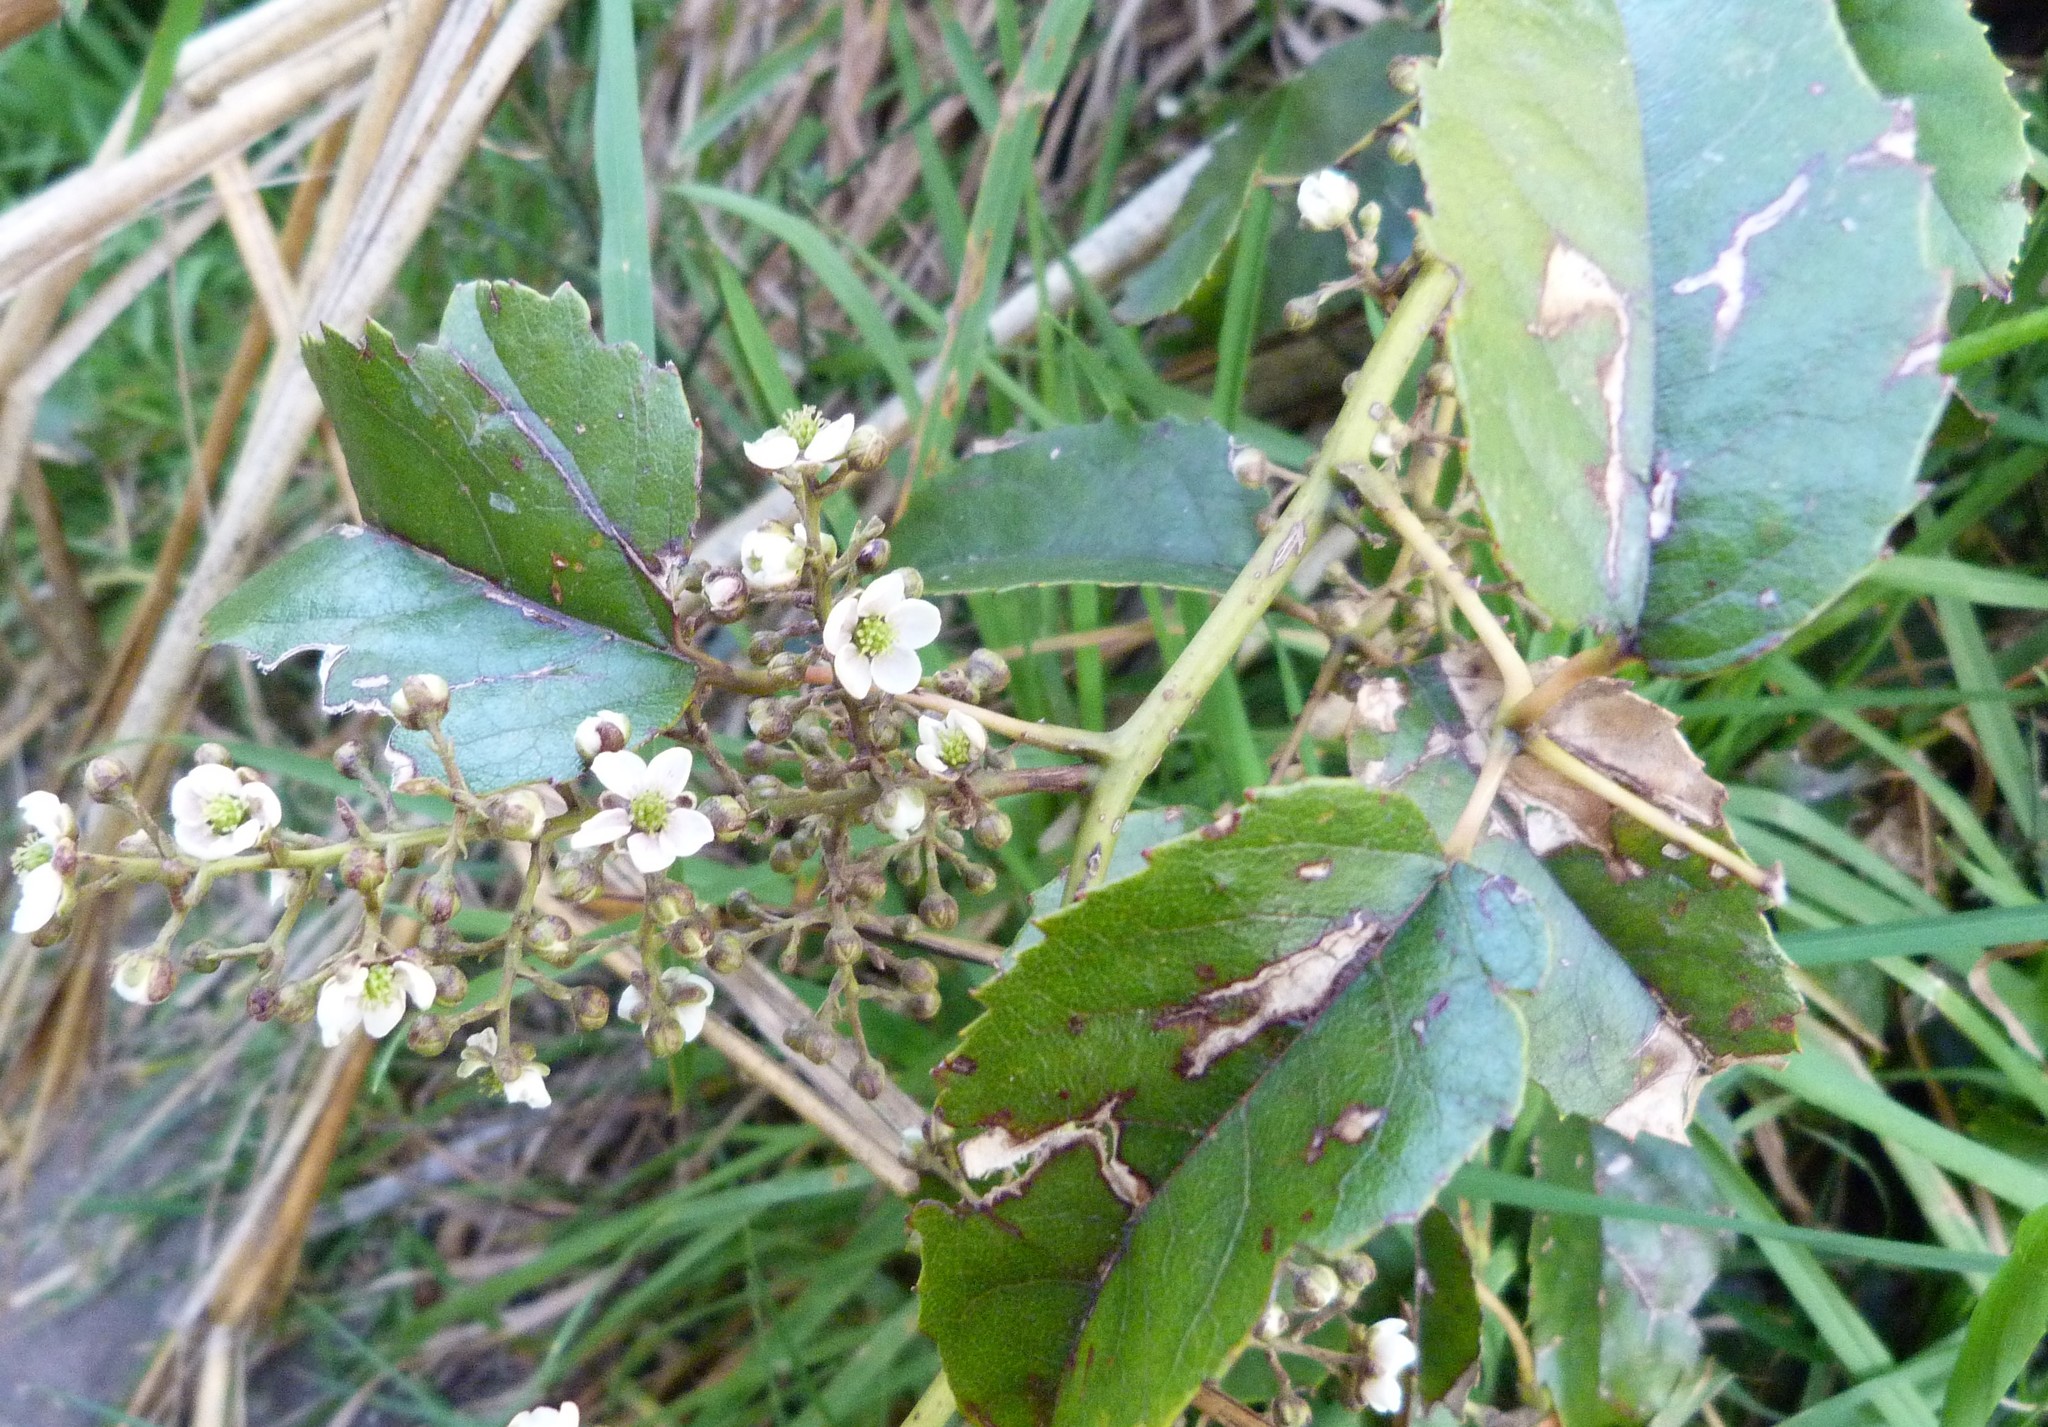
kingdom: Plantae
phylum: Tracheophyta
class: Magnoliopsida
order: Rosales
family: Rosaceae
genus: Rubus
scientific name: Rubus cissoides
